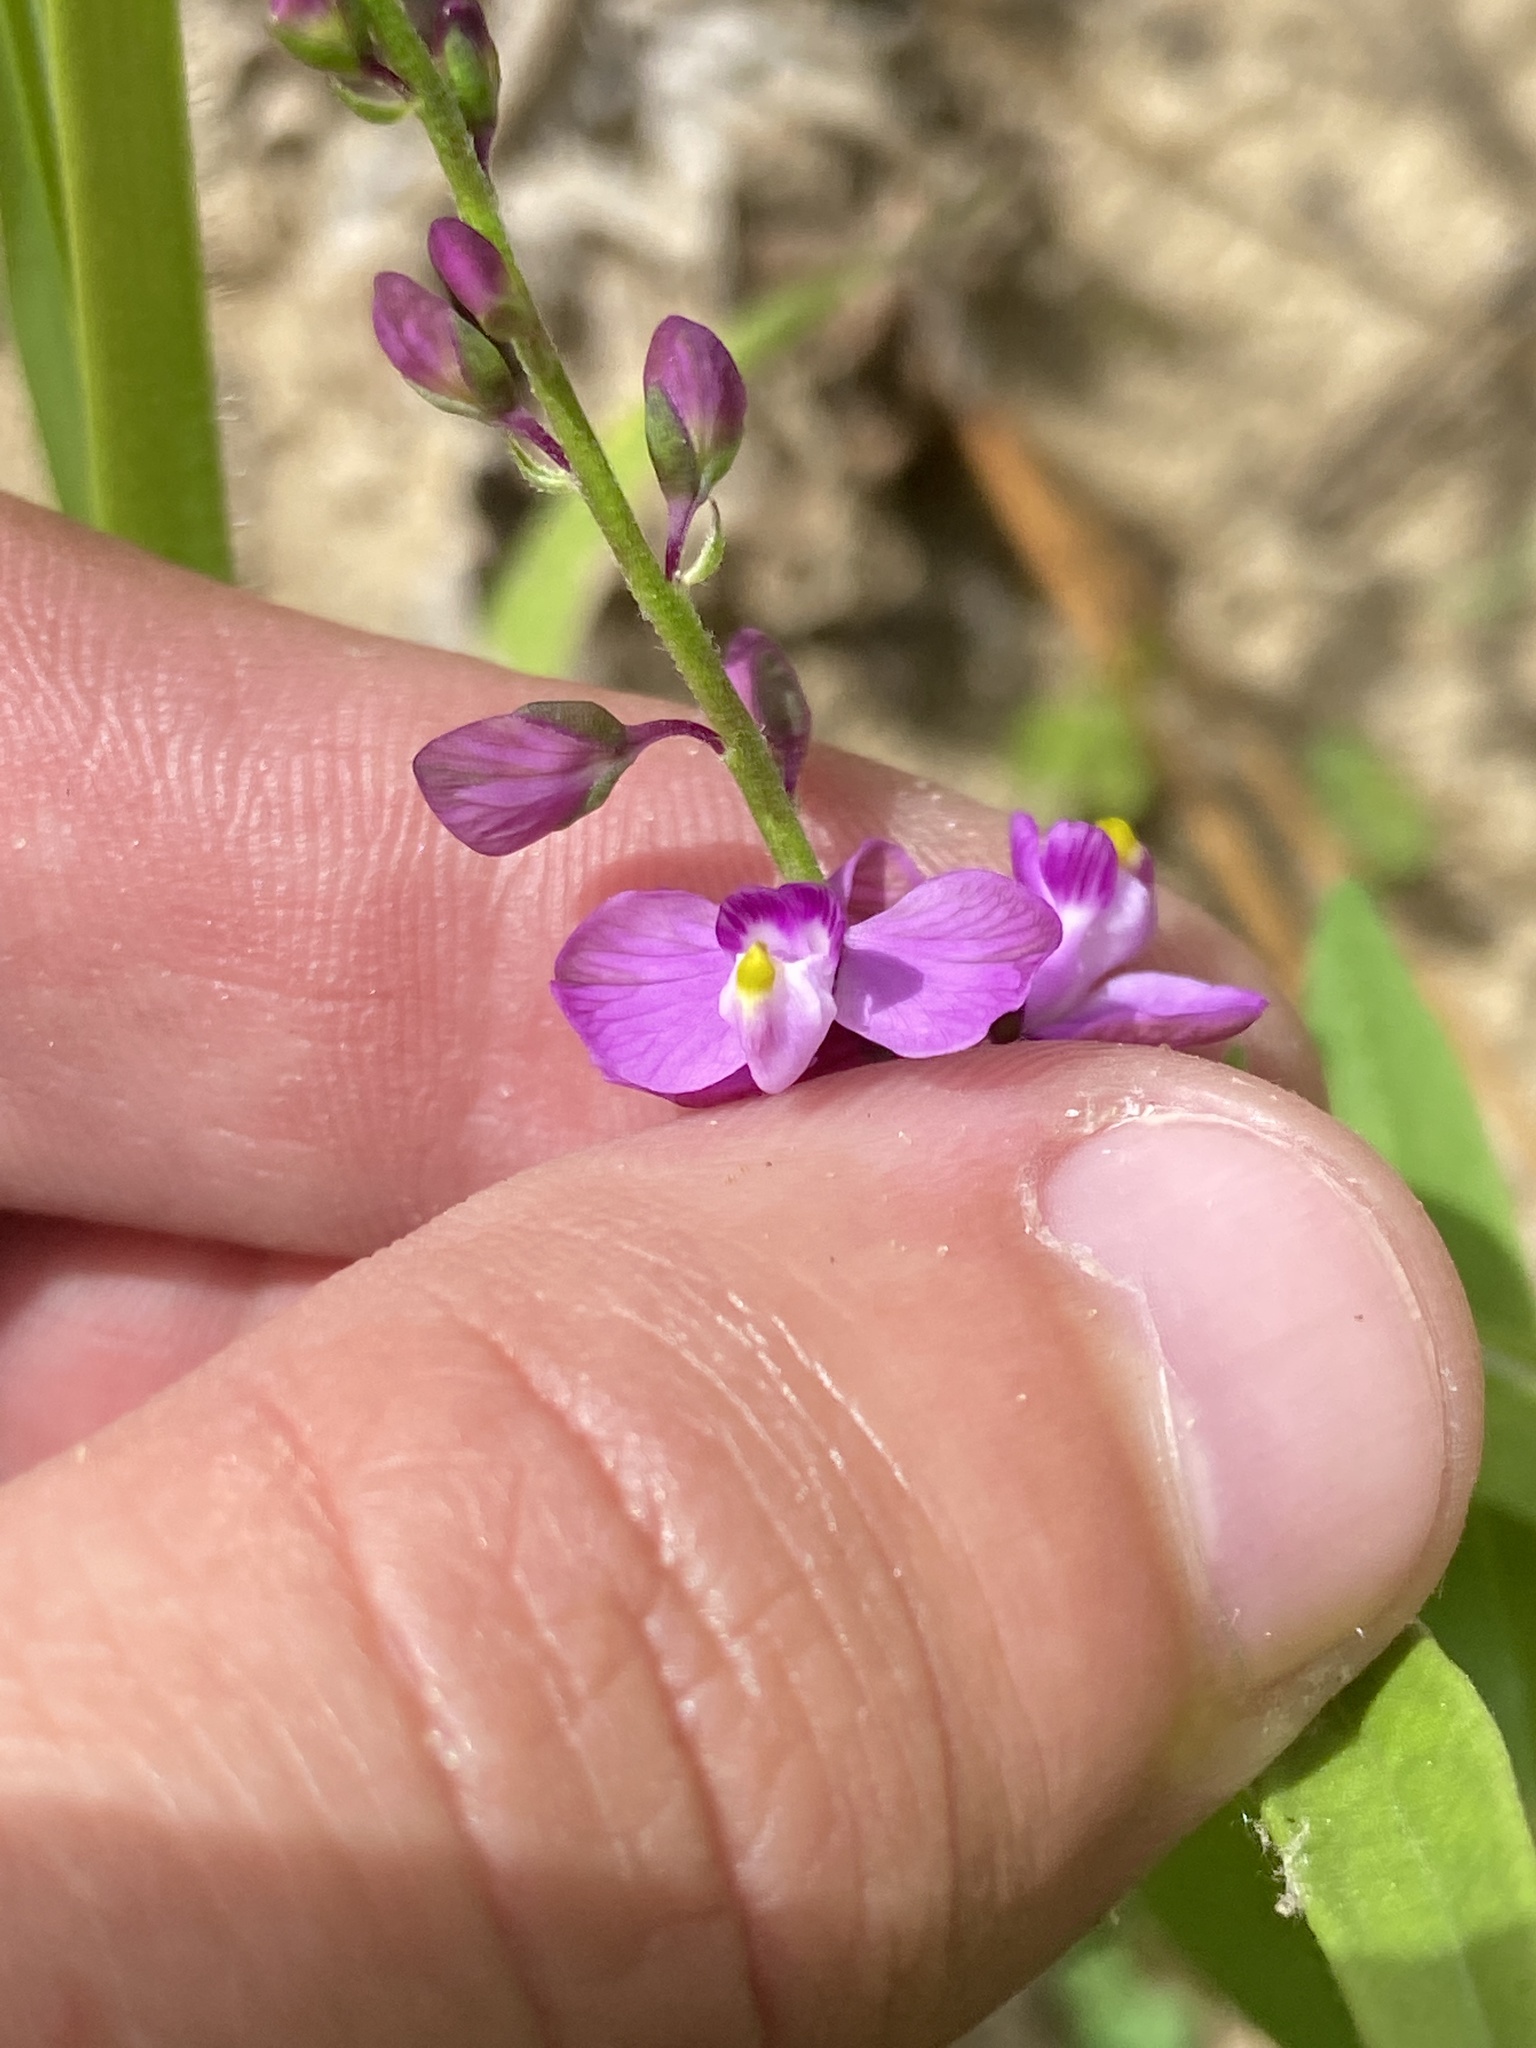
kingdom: Plantae
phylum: Tracheophyta
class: Magnoliopsida
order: Fabales
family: Polygalaceae
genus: Asemeia
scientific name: Asemeia grandiflora
